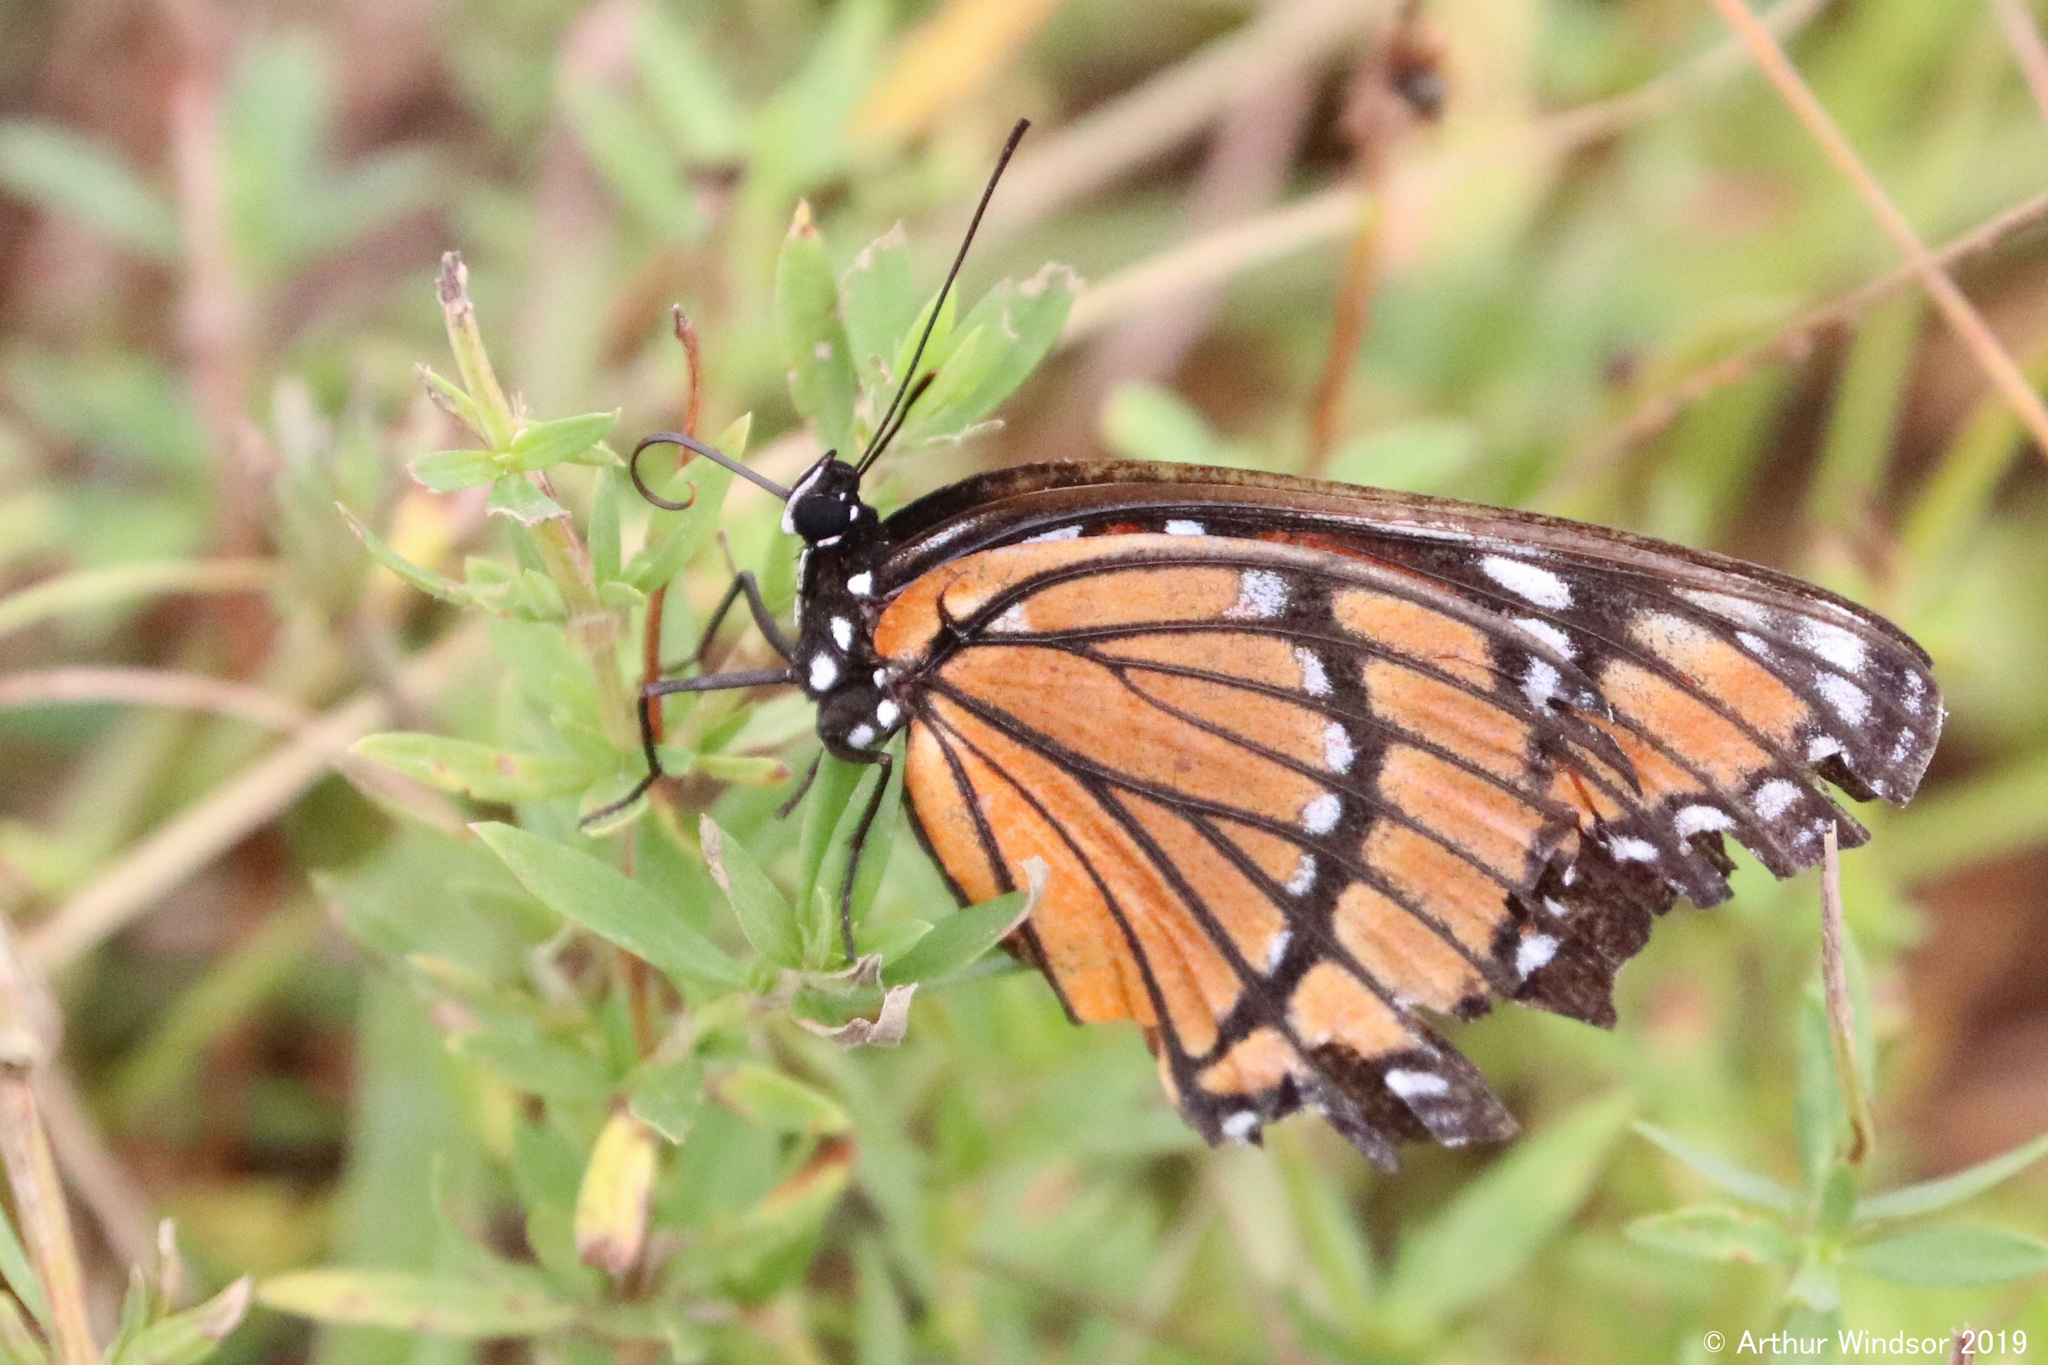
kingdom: Animalia
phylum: Arthropoda
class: Insecta
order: Lepidoptera
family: Nymphalidae
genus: Limenitis
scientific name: Limenitis archippus
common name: Viceroy
